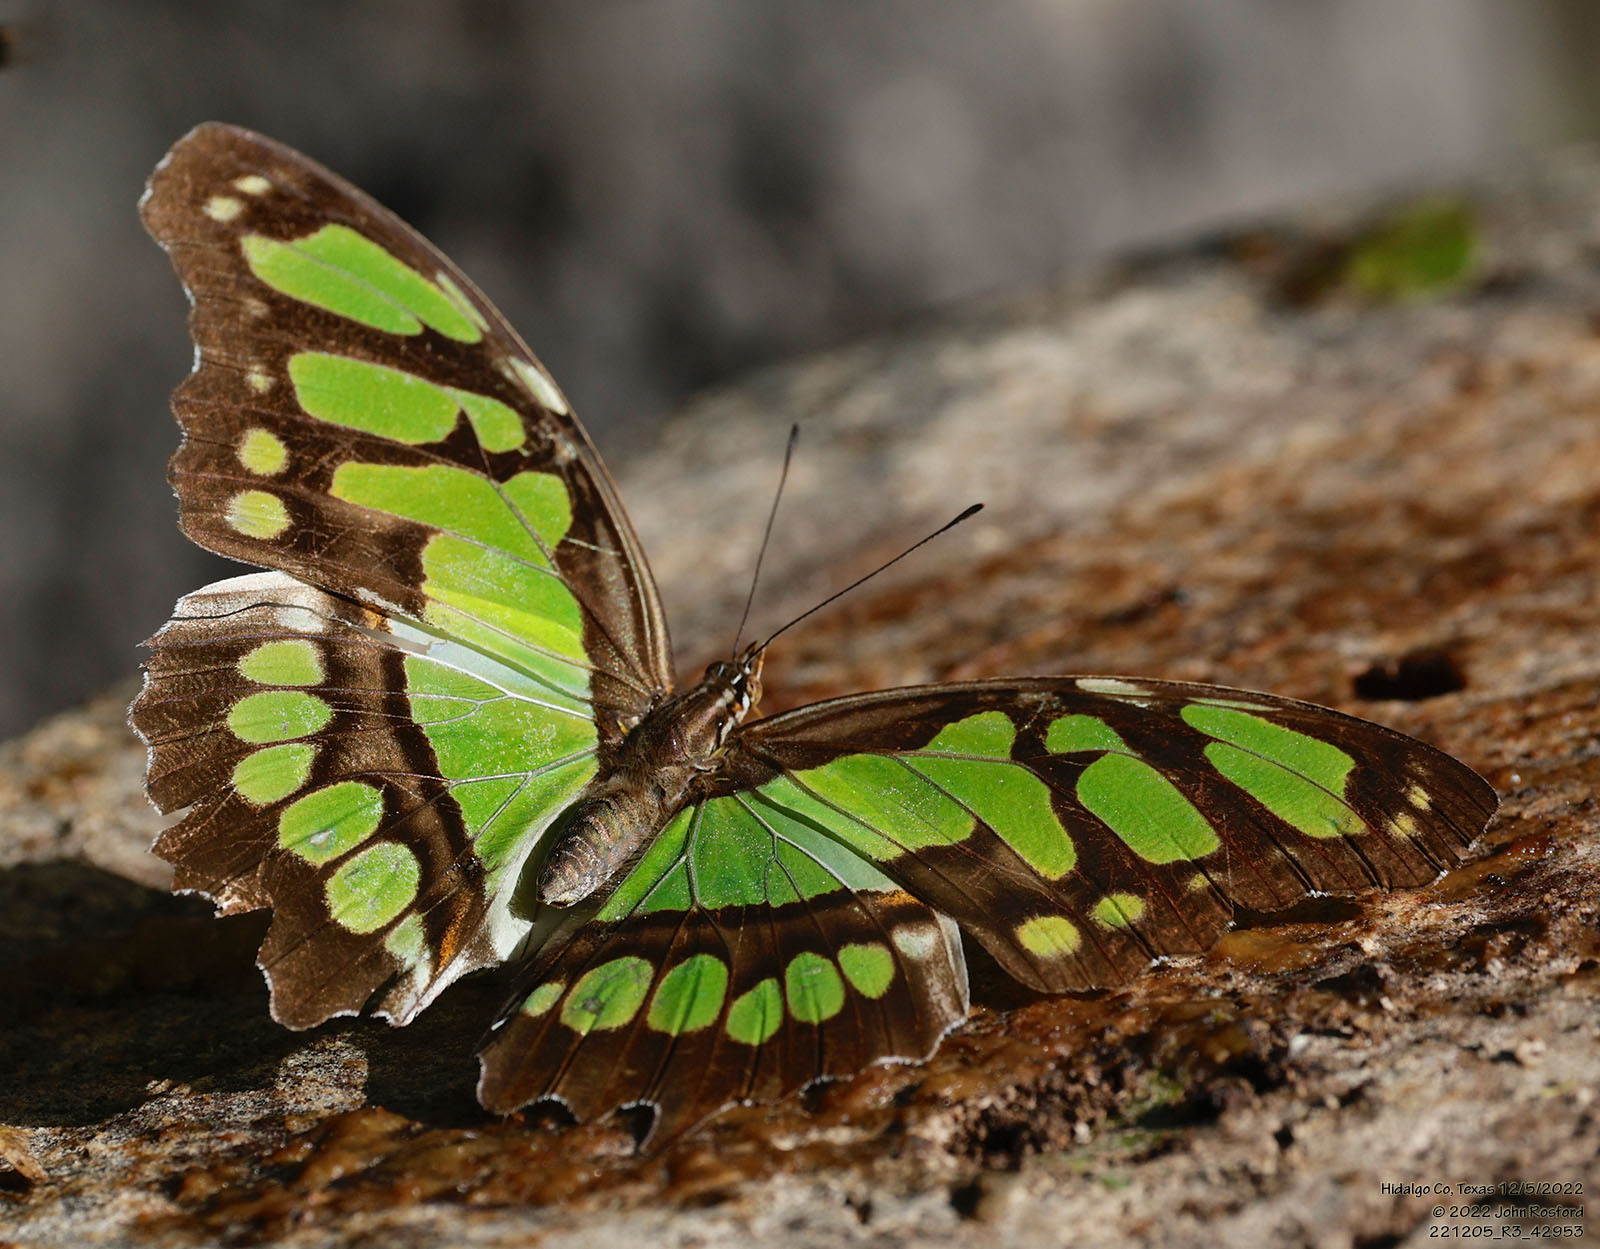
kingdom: Animalia
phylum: Arthropoda
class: Insecta
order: Lepidoptera
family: Nymphalidae
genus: Siproeta
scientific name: Siproeta stelenes
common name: Malachite
